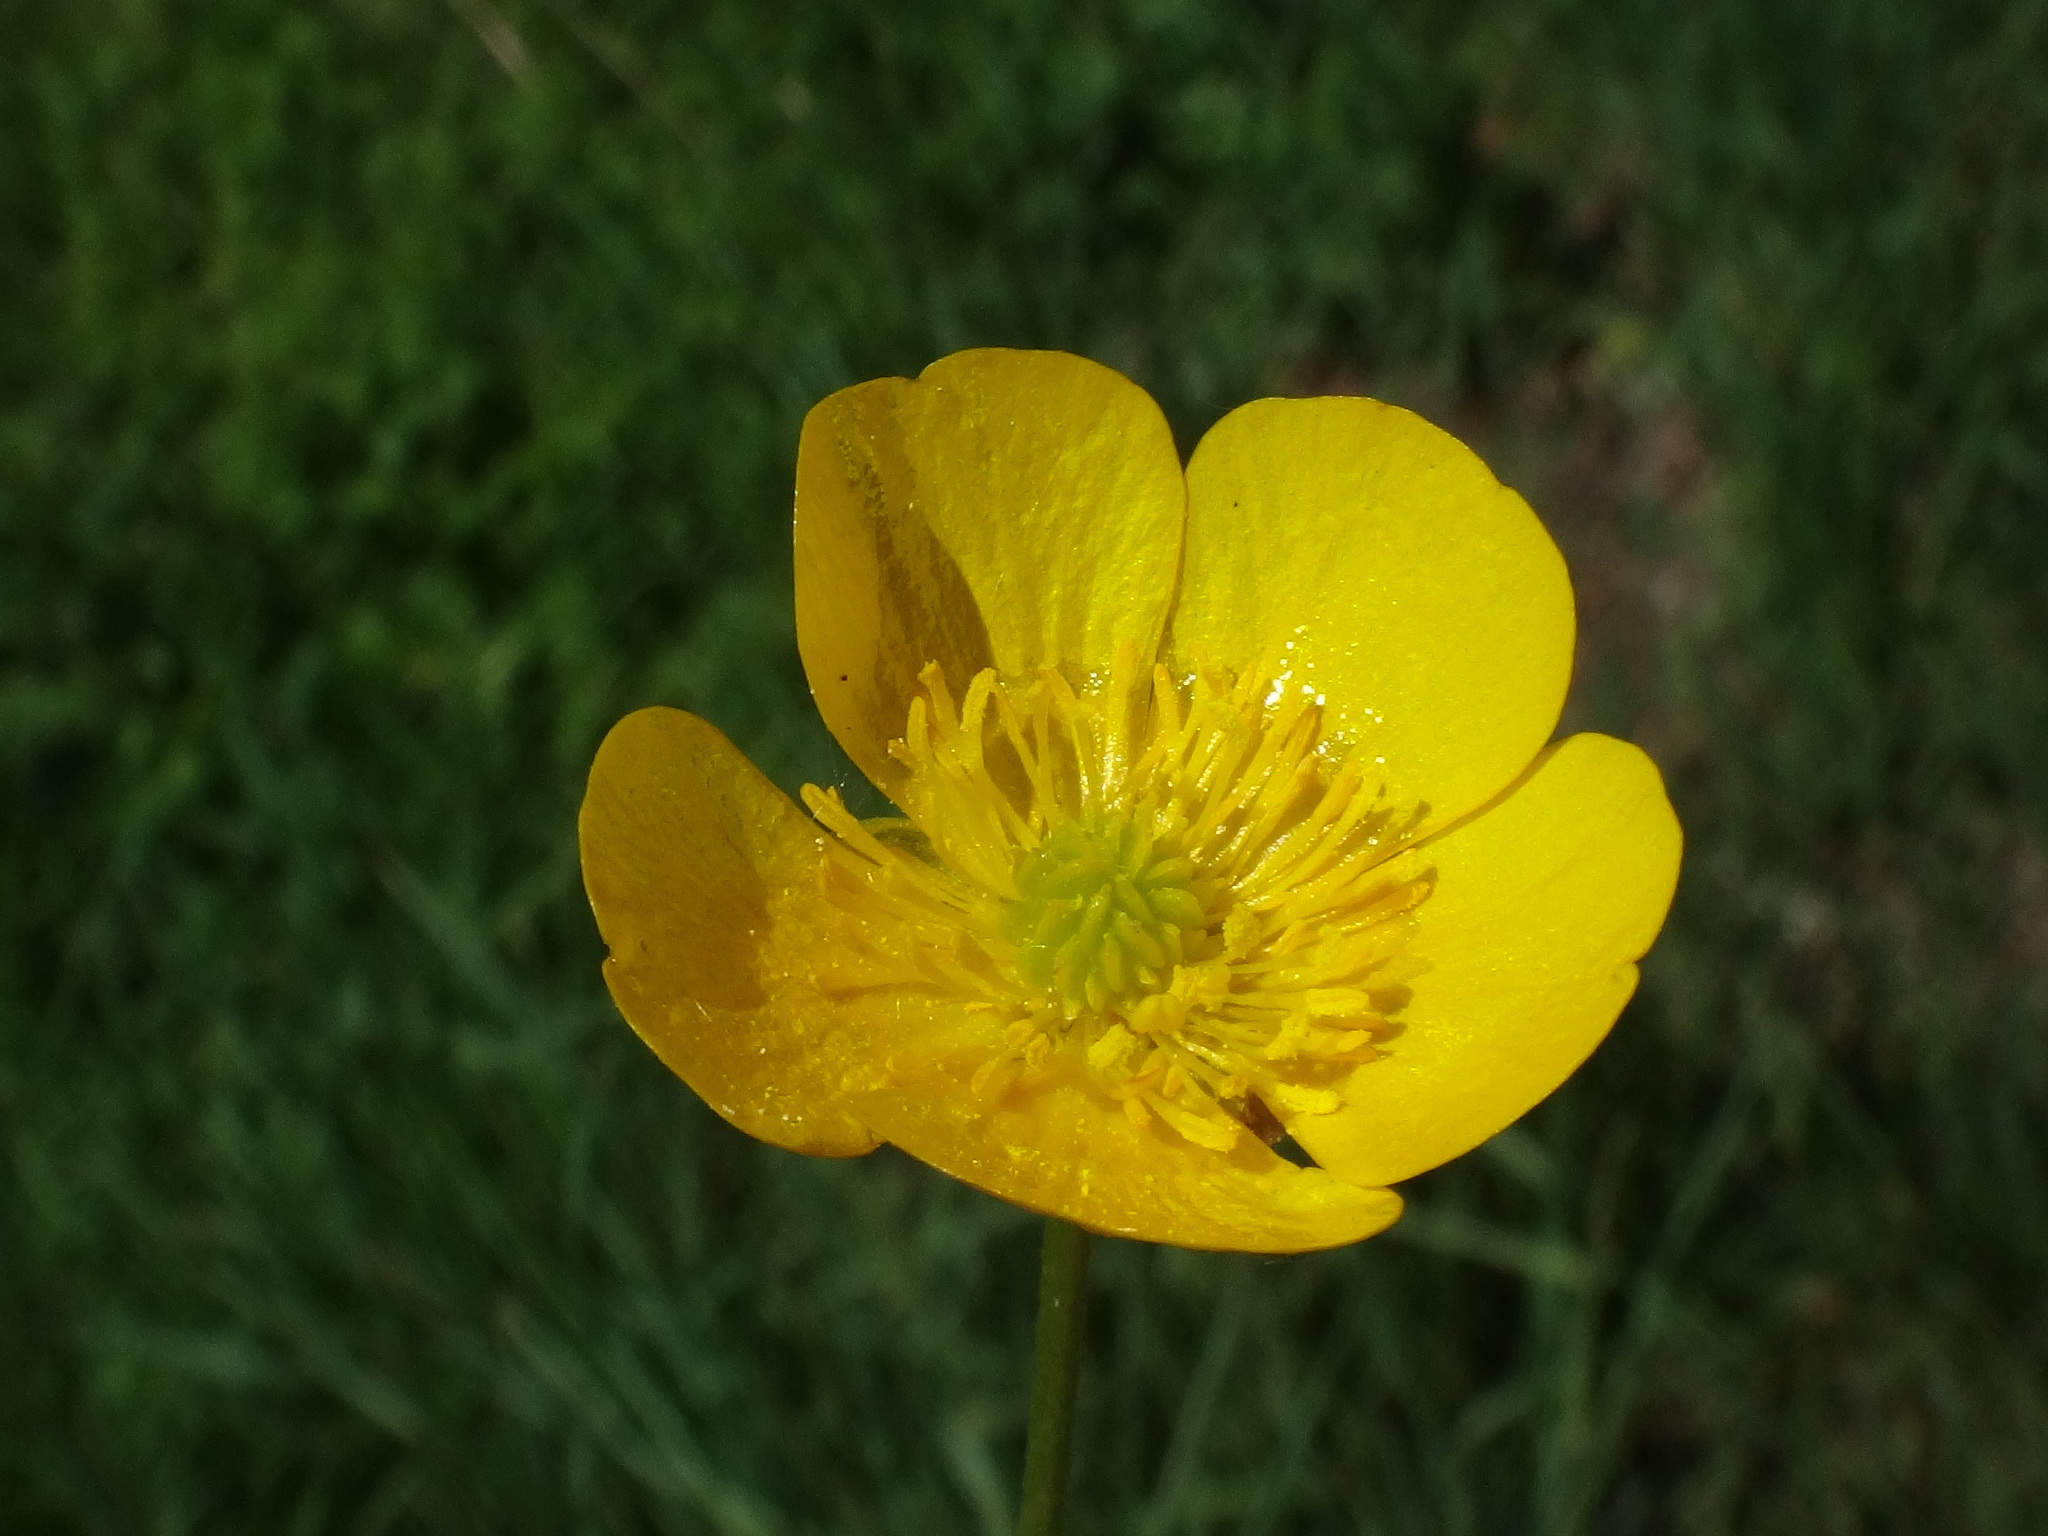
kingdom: Plantae
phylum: Tracheophyta
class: Magnoliopsida
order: Ranunculales
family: Ranunculaceae
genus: Ranunculus
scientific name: Ranunculus acris
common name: Meadow buttercup
